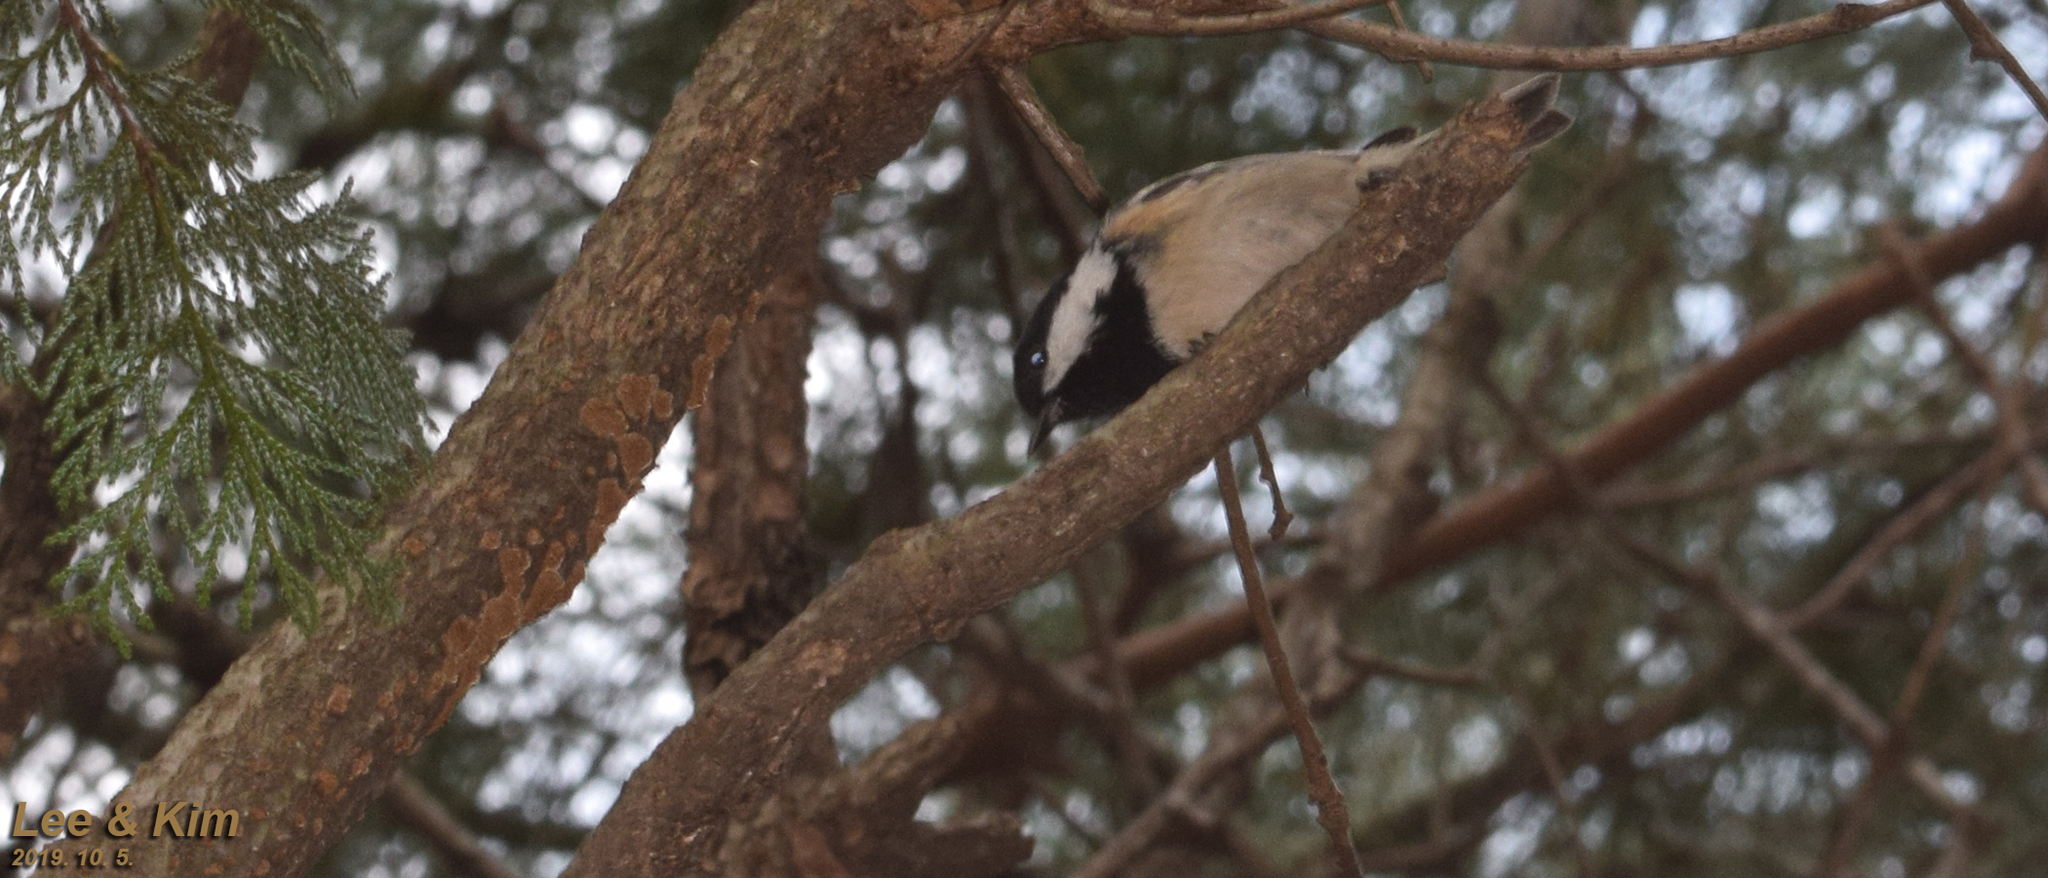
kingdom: Animalia
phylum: Chordata
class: Aves
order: Passeriformes
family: Paridae
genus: Periparus
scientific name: Periparus ater
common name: Coal tit
